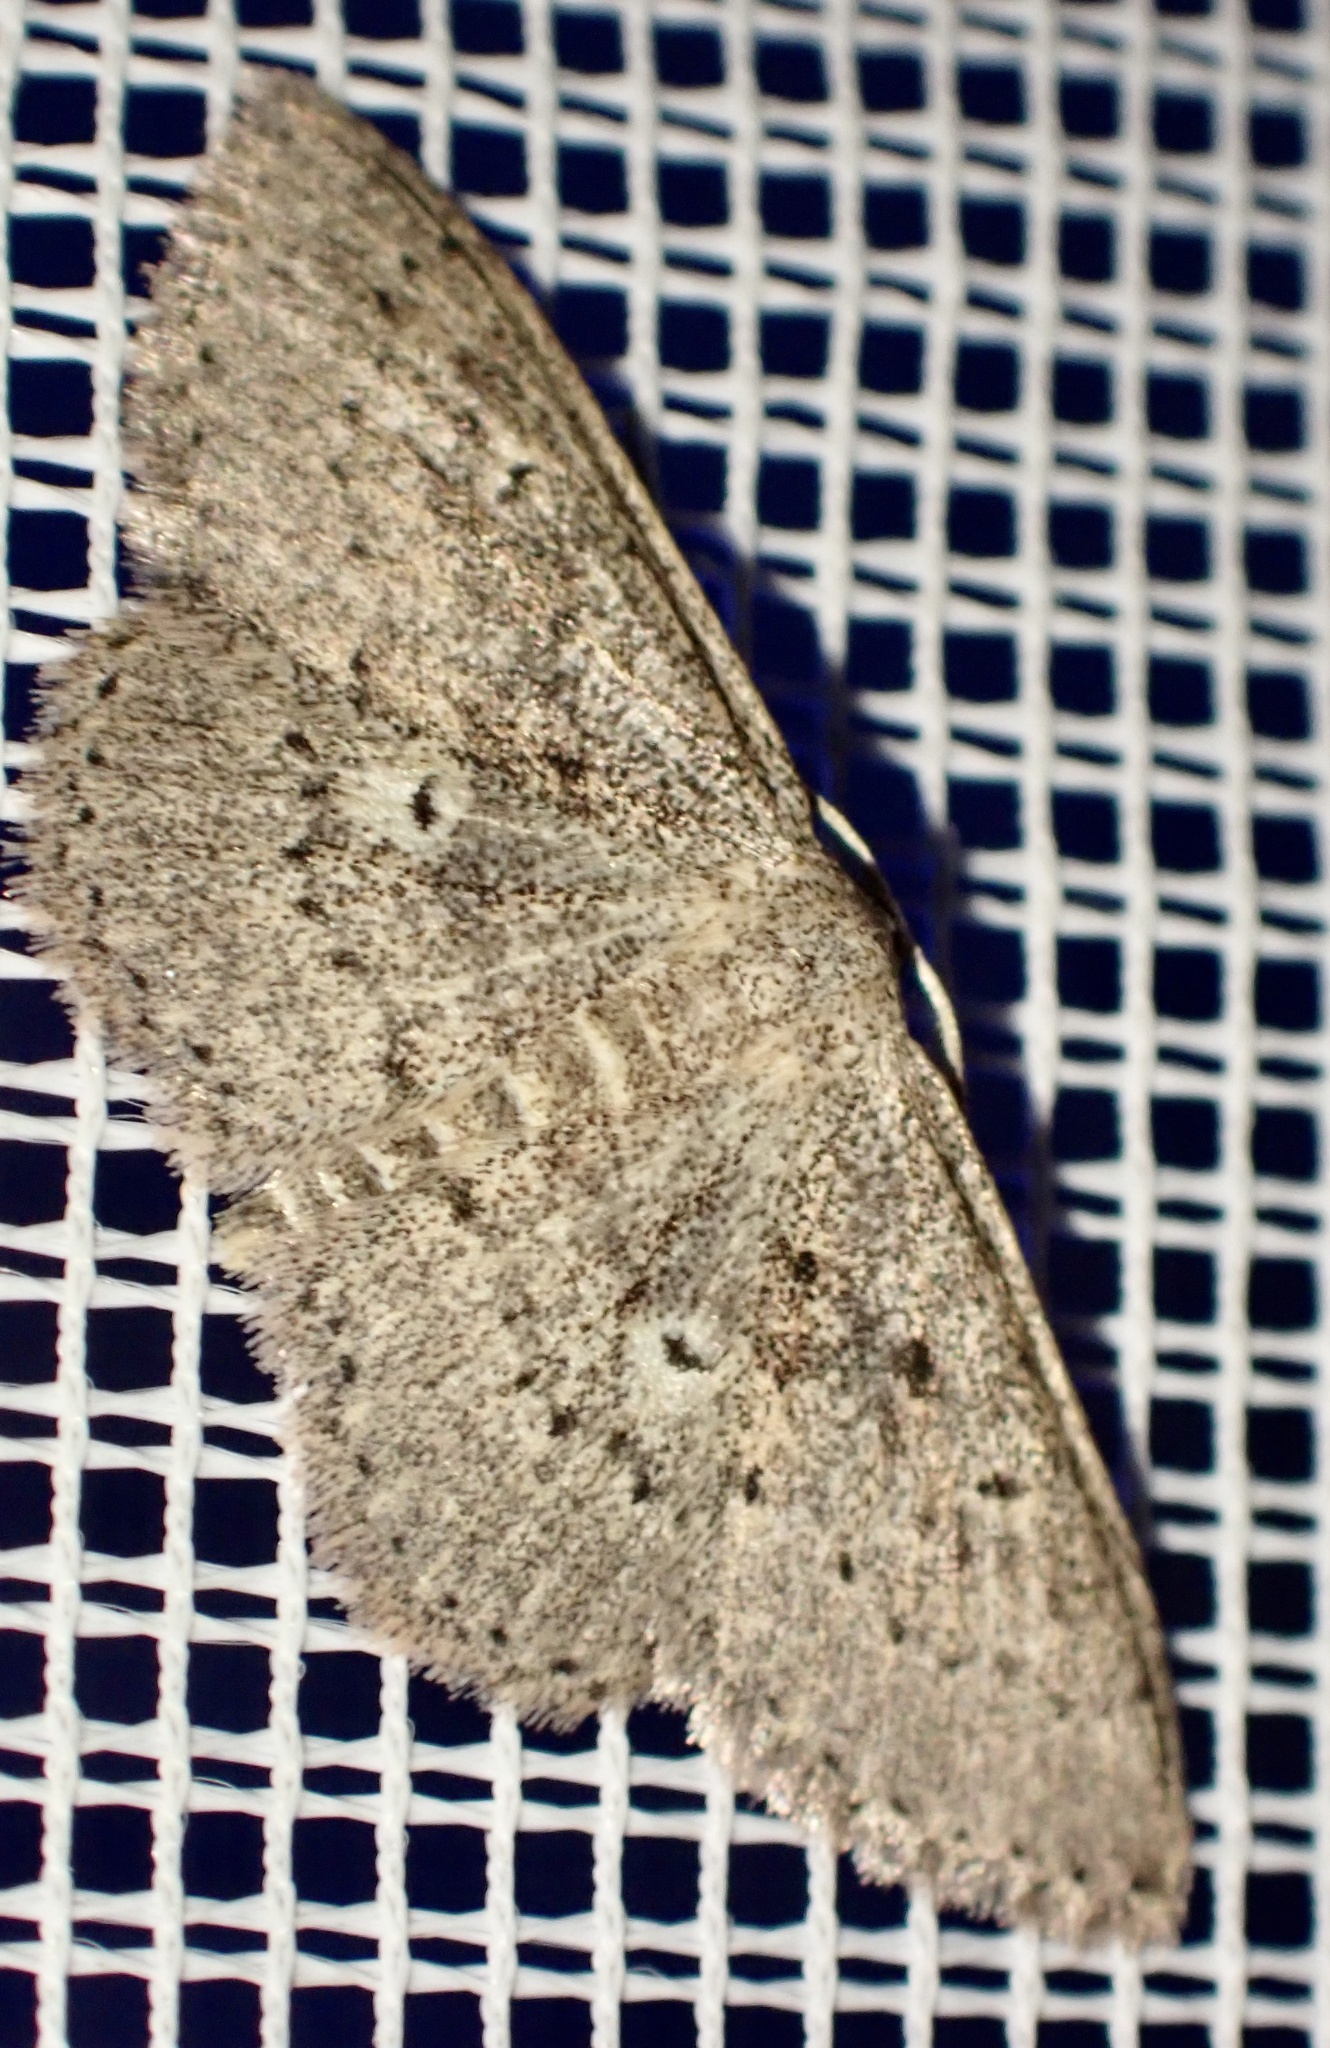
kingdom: Animalia
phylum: Arthropoda
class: Insecta
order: Lepidoptera
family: Geometridae
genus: Scopula
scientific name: Scopula guancharia
